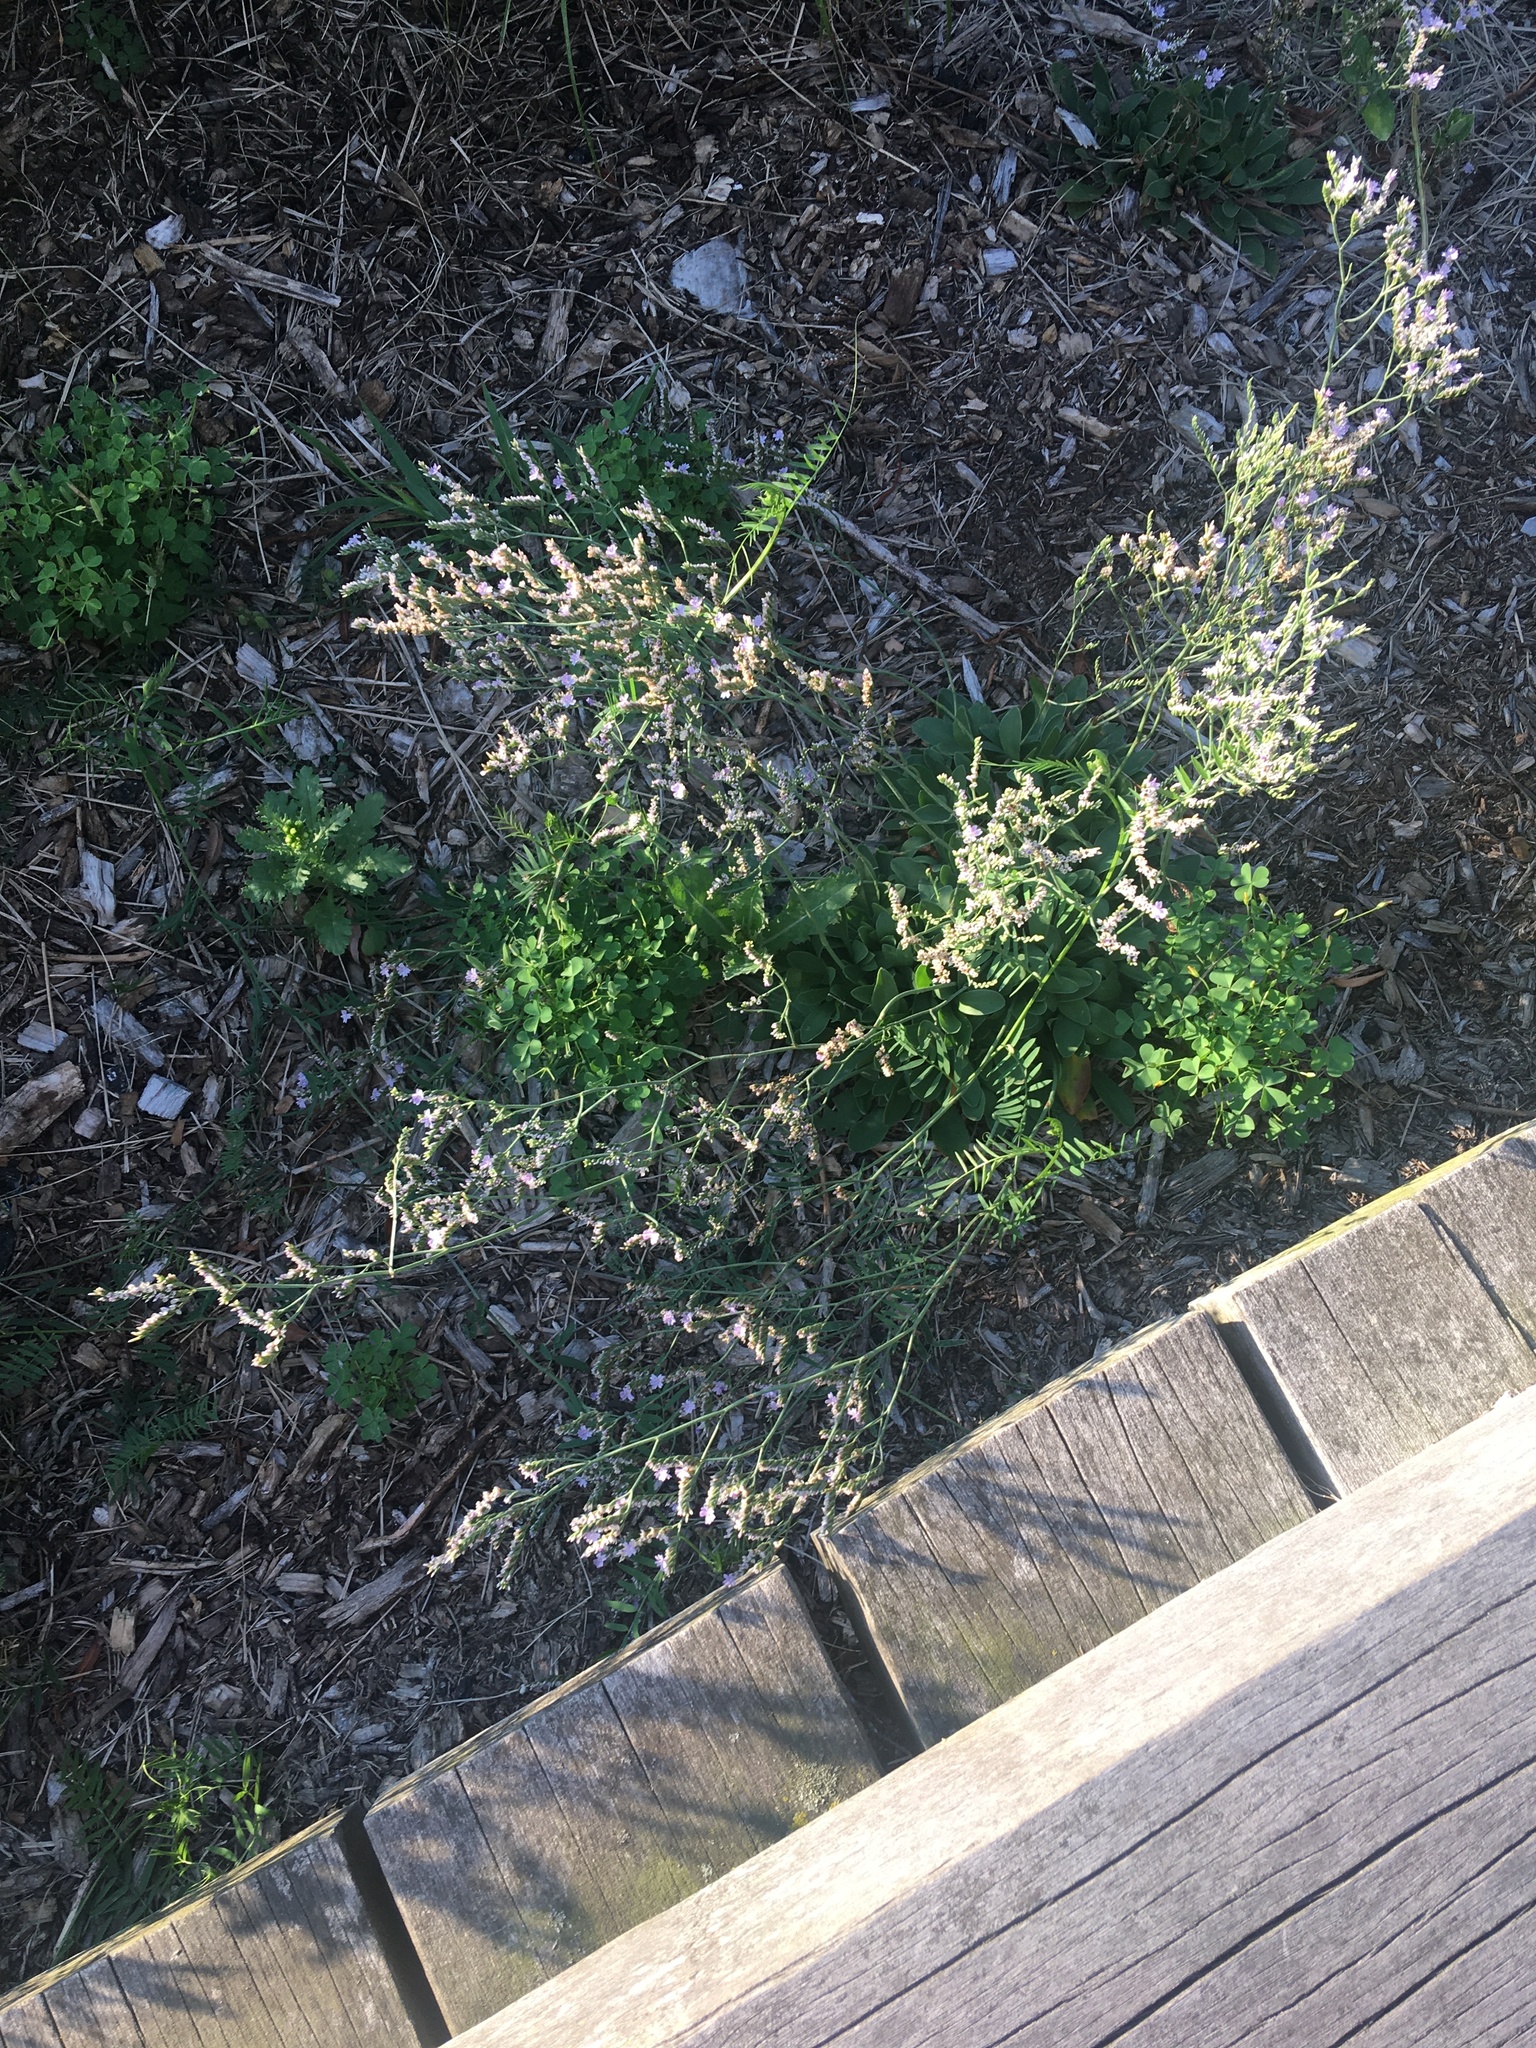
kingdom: Plantae
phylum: Tracheophyta
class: Magnoliopsida
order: Caryophyllales
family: Plumbaginaceae
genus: Limonium
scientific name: Limonium carolinianum
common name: Carolina sea lavender
